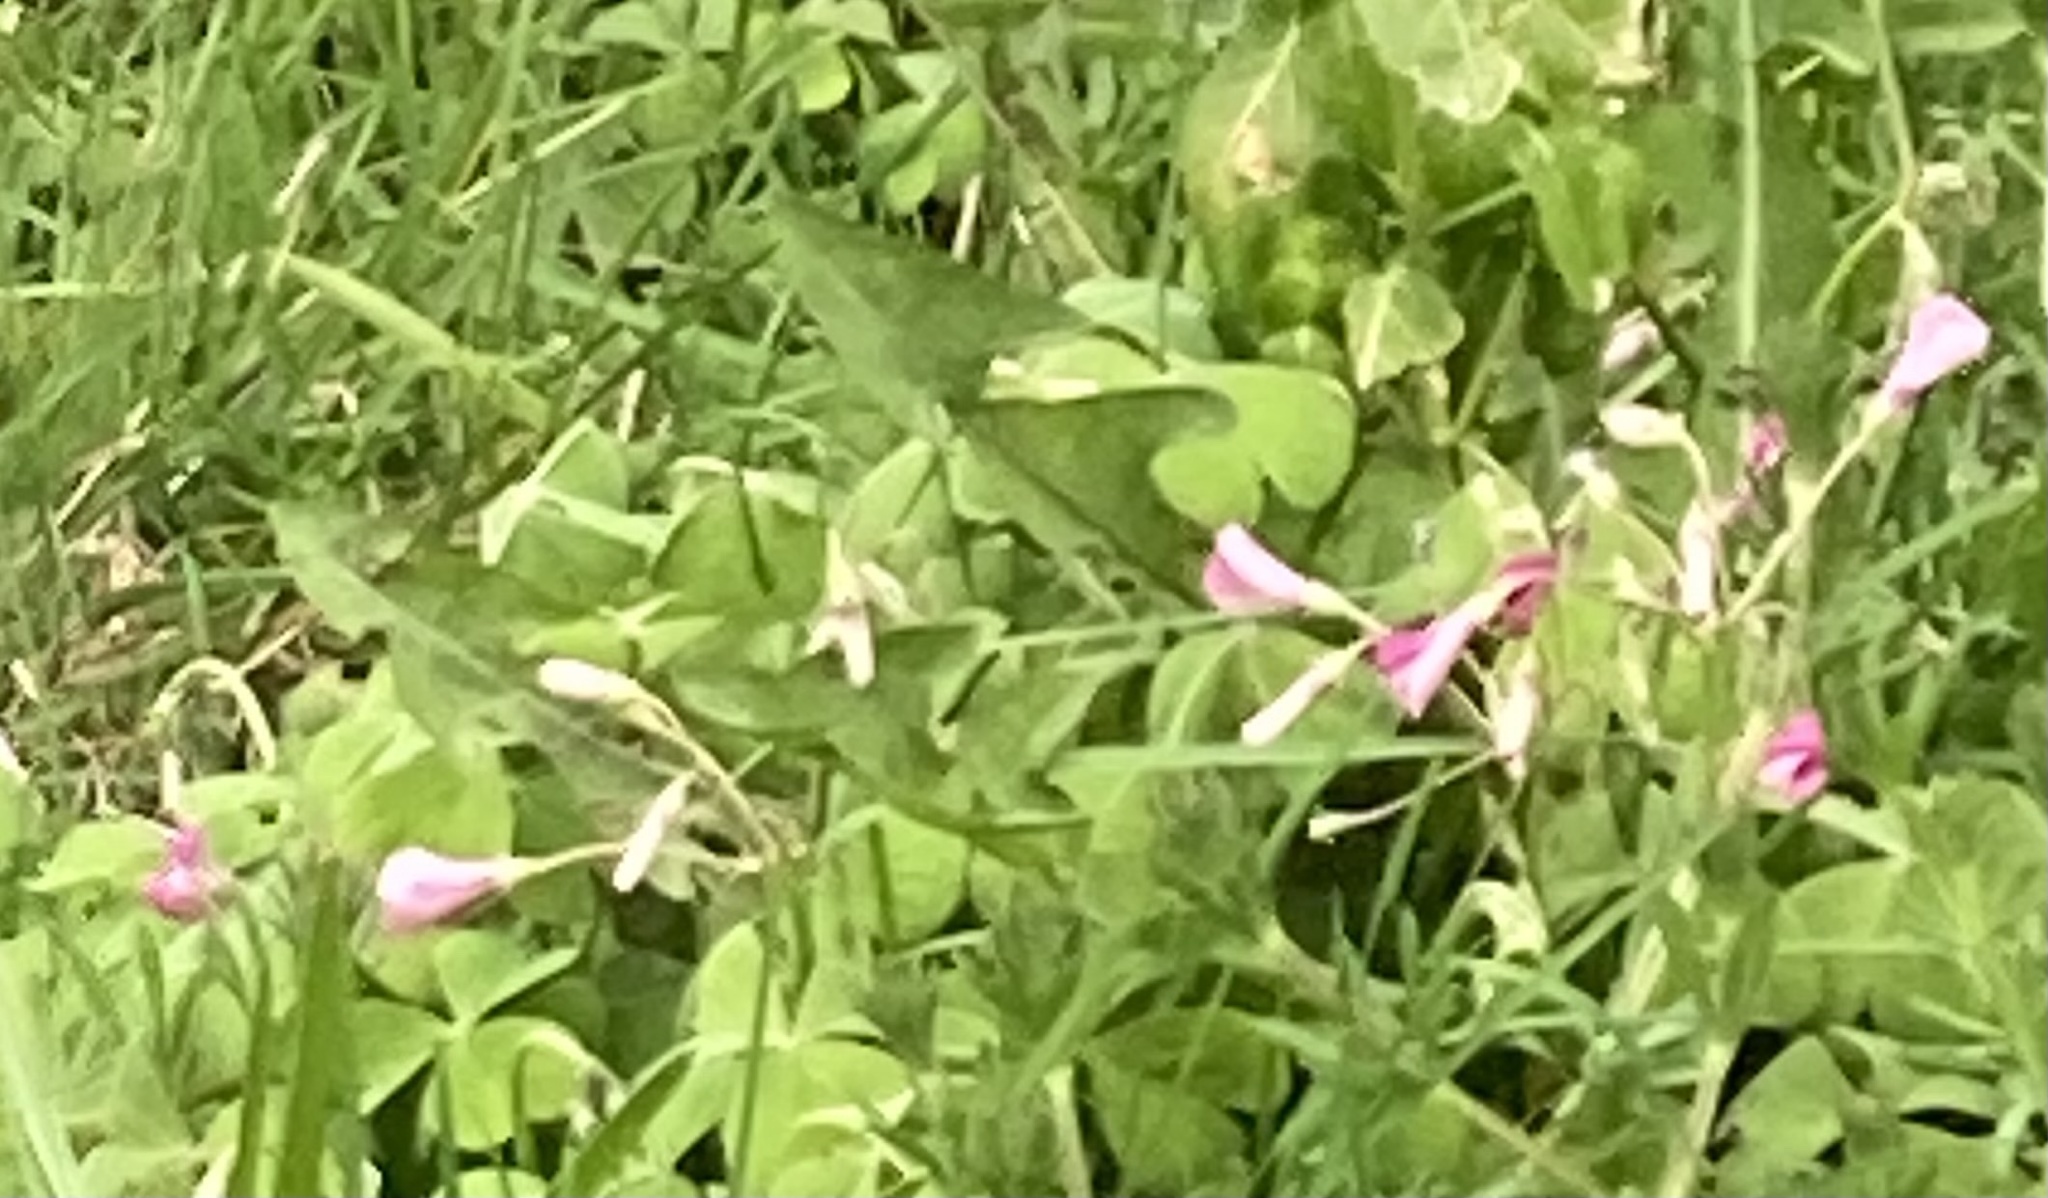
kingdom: Plantae
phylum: Tracheophyta
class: Magnoliopsida
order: Oxalidales
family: Oxalidaceae
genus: Oxalis
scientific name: Oxalis articulata
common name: Pink-sorrel
